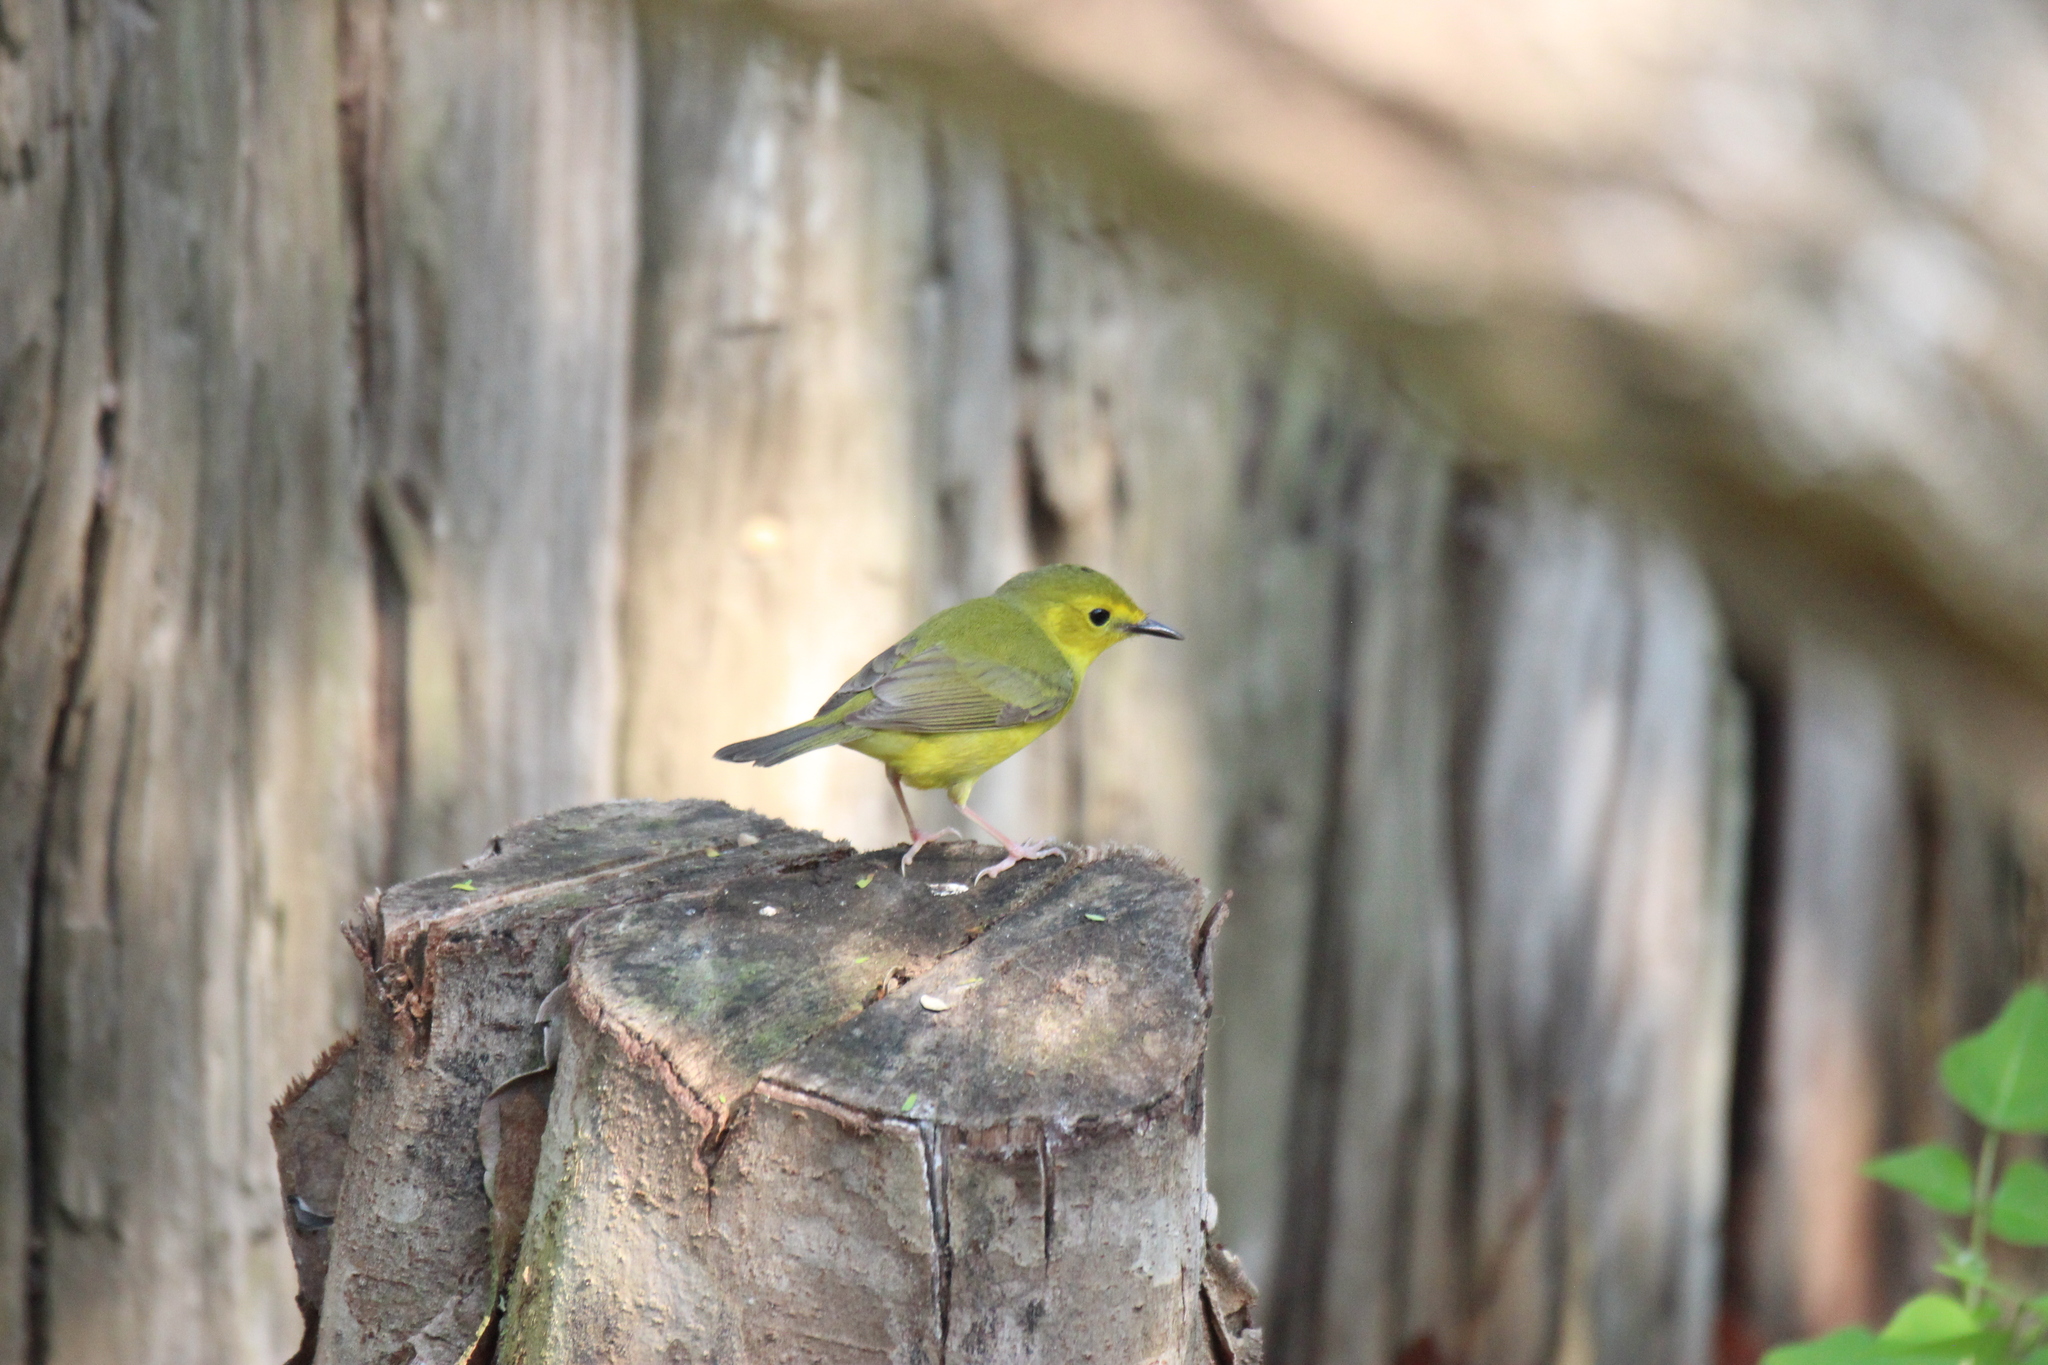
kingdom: Animalia
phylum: Chordata
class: Aves
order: Passeriformes
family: Parulidae
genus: Setophaga
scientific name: Setophaga citrina
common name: Hooded warbler
